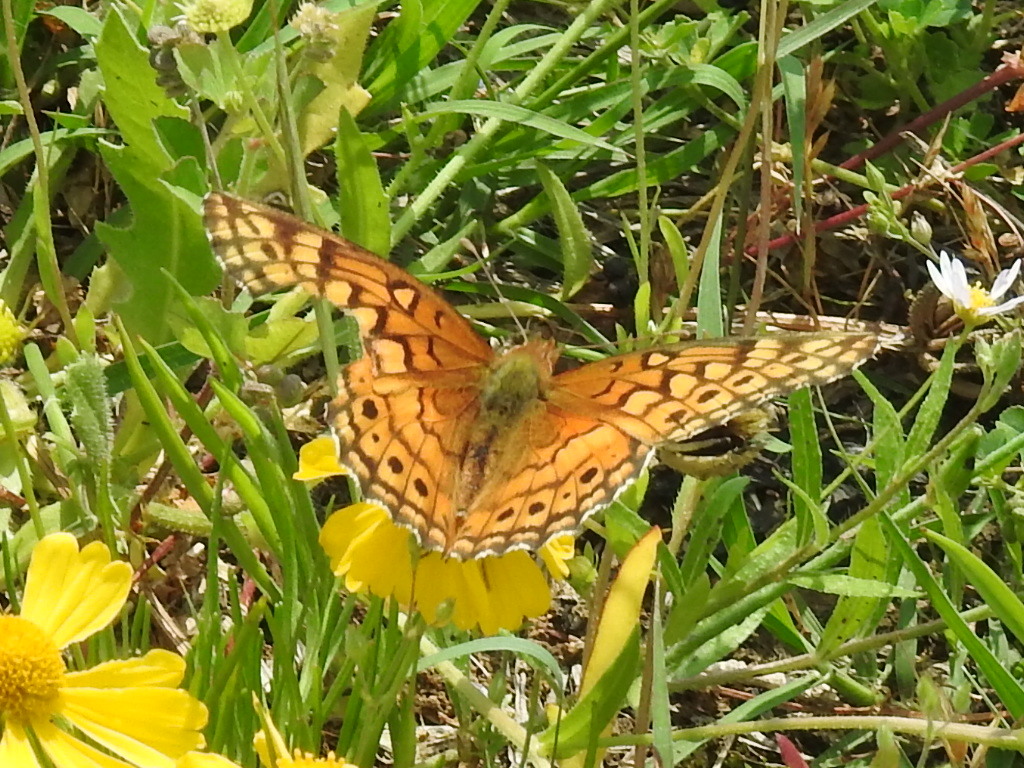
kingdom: Animalia
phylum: Arthropoda
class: Insecta
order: Lepidoptera
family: Nymphalidae
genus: Euptoieta
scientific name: Euptoieta claudia
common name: Variegated fritillary
